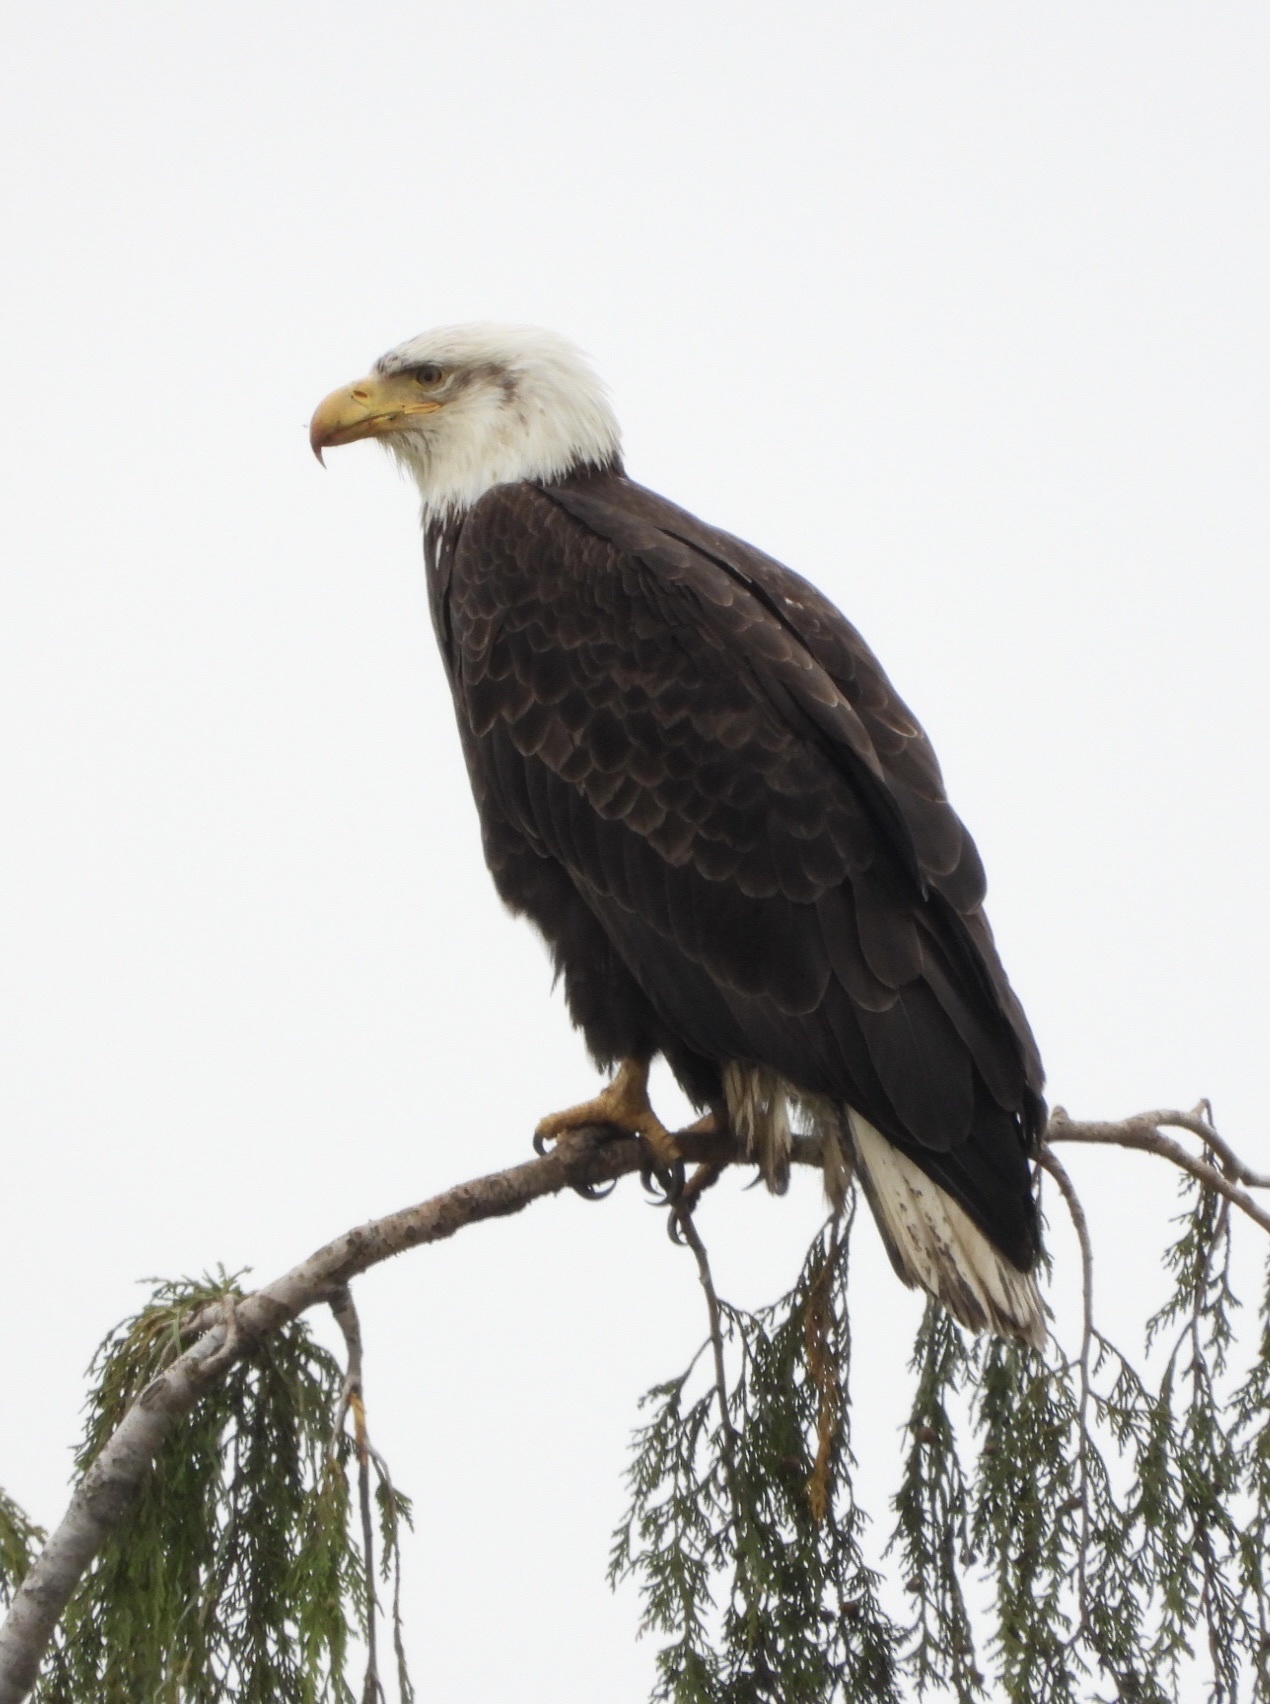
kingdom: Animalia
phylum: Chordata
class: Aves
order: Accipitriformes
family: Accipitridae
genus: Haliaeetus
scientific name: Haliaeetus leucocephalus
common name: Bald eagle
